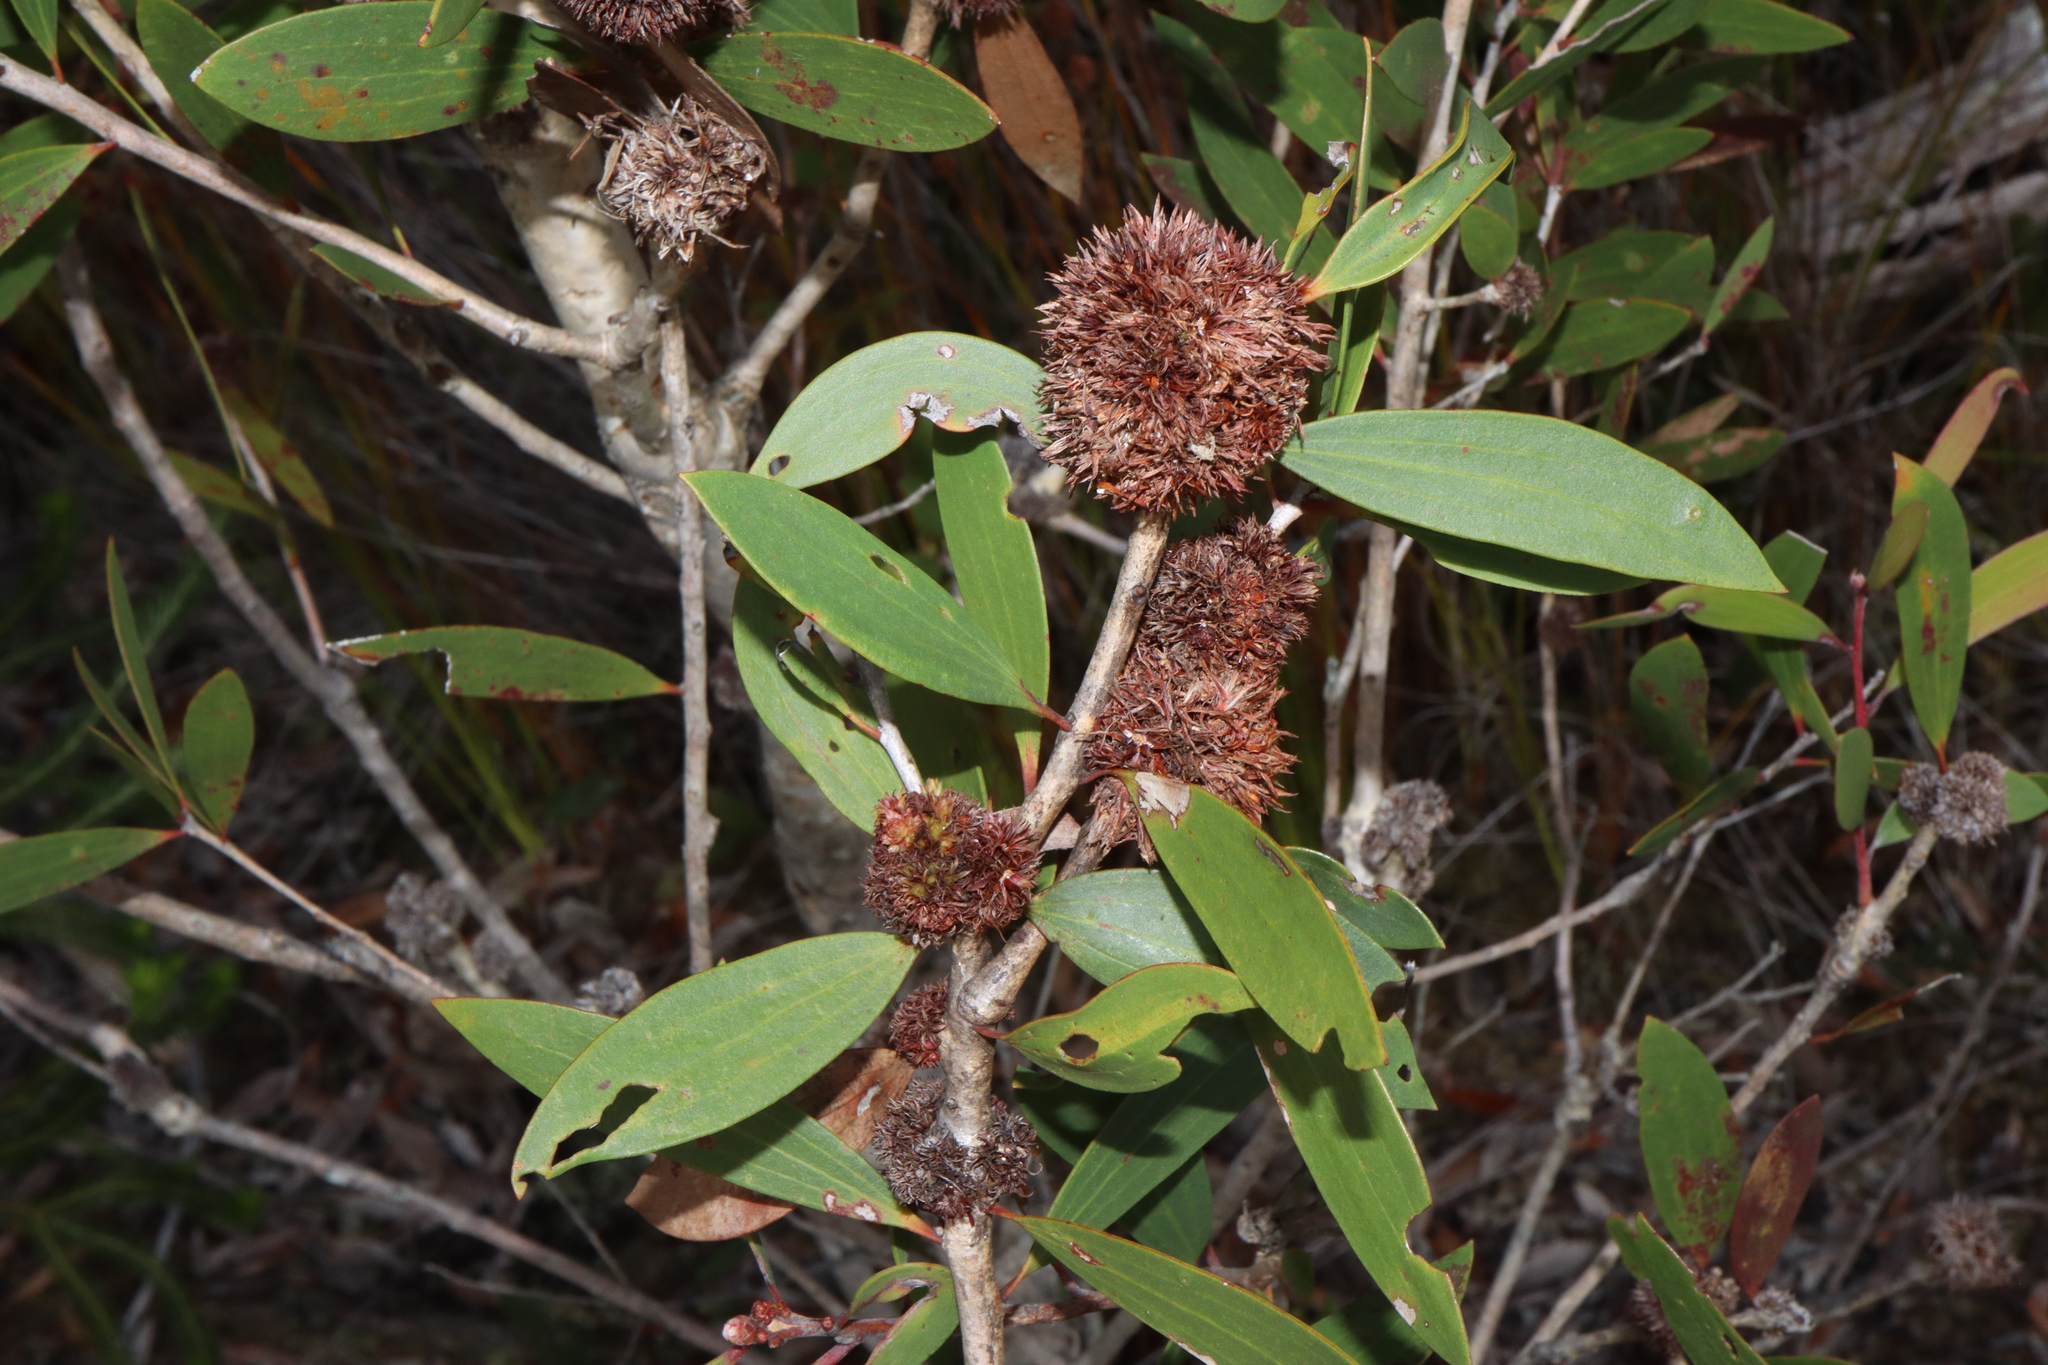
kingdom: Animalia
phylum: Arthropoda
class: Insecta
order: Hemiptera
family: Beesoniidae
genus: Beesonia
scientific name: Beesonia ferrugineus
